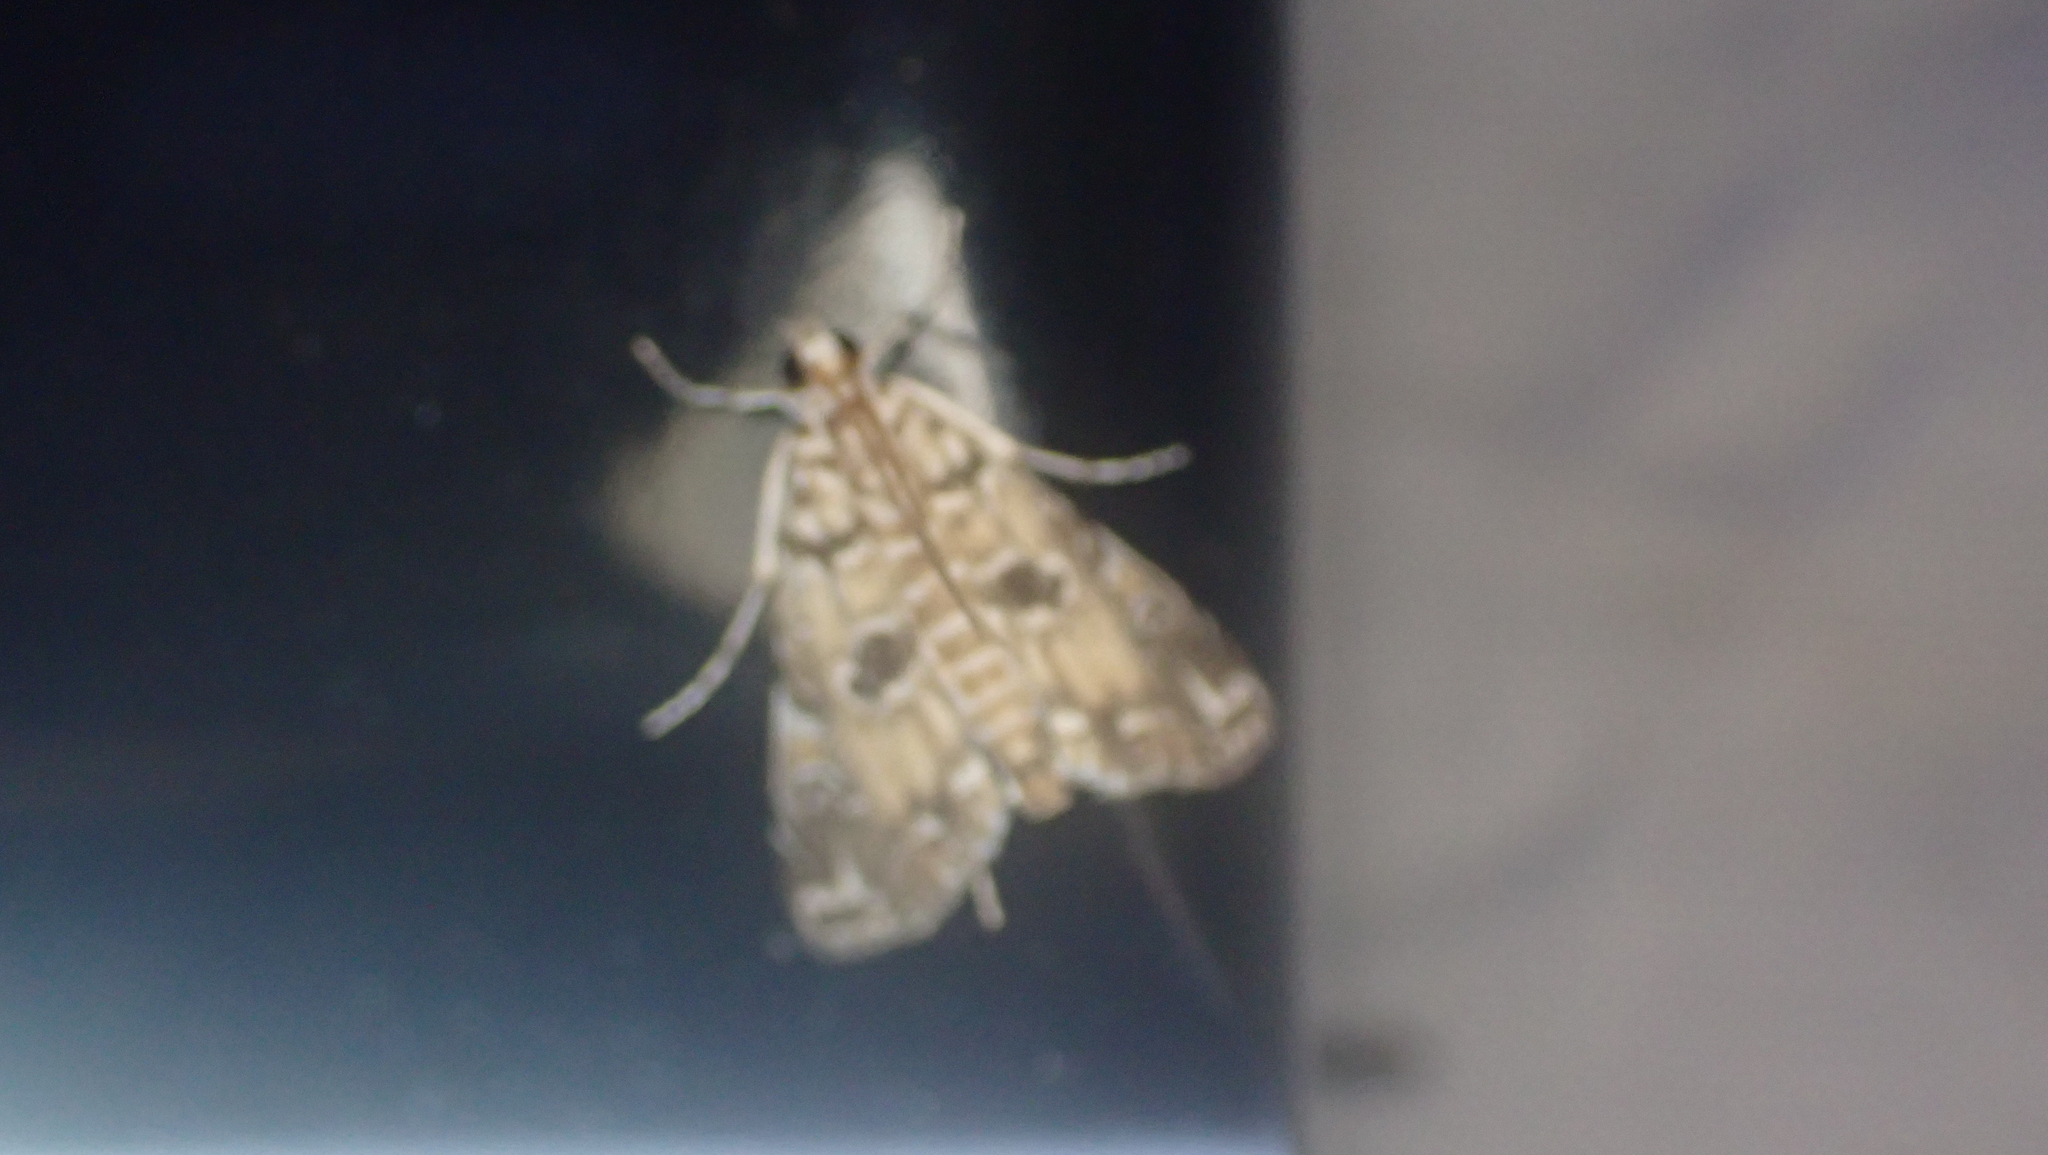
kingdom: Animalia
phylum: Arthropoda
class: Insecta
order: Lepidoptera
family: Crambidae
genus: Elophila
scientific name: Elophila gyralis
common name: Waterlily borer moth
